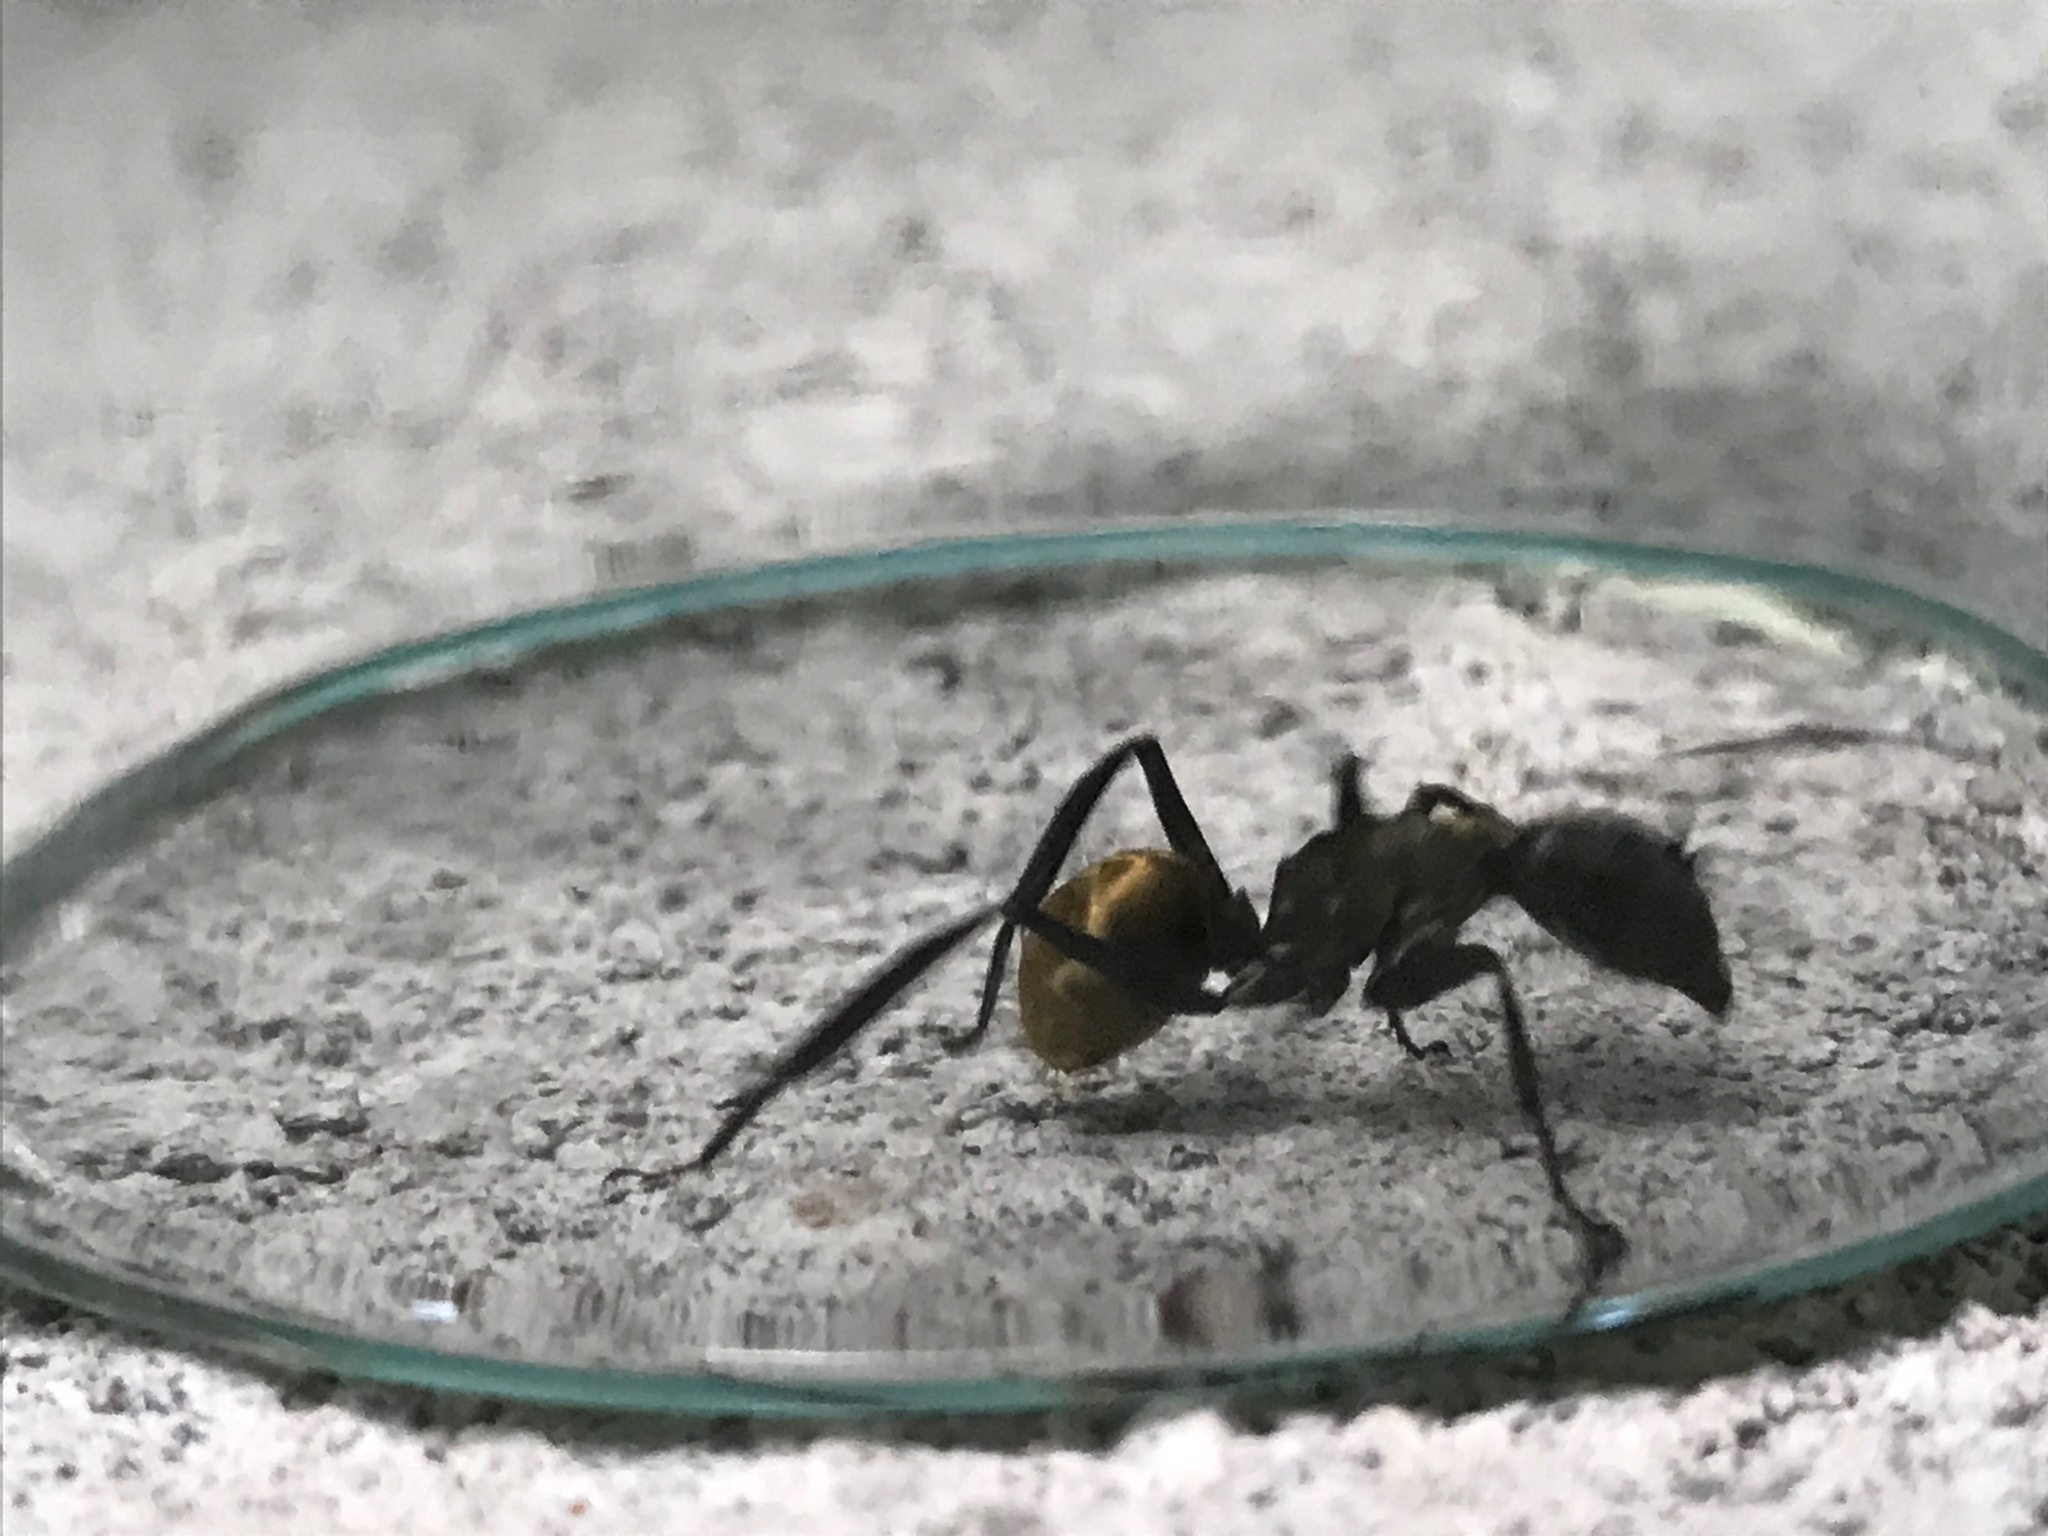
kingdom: Animalia
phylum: Arthropoda
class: Insecta
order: Hymenoptera
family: Formicidae
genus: Camponotus
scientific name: Camponotus sericeiventris
